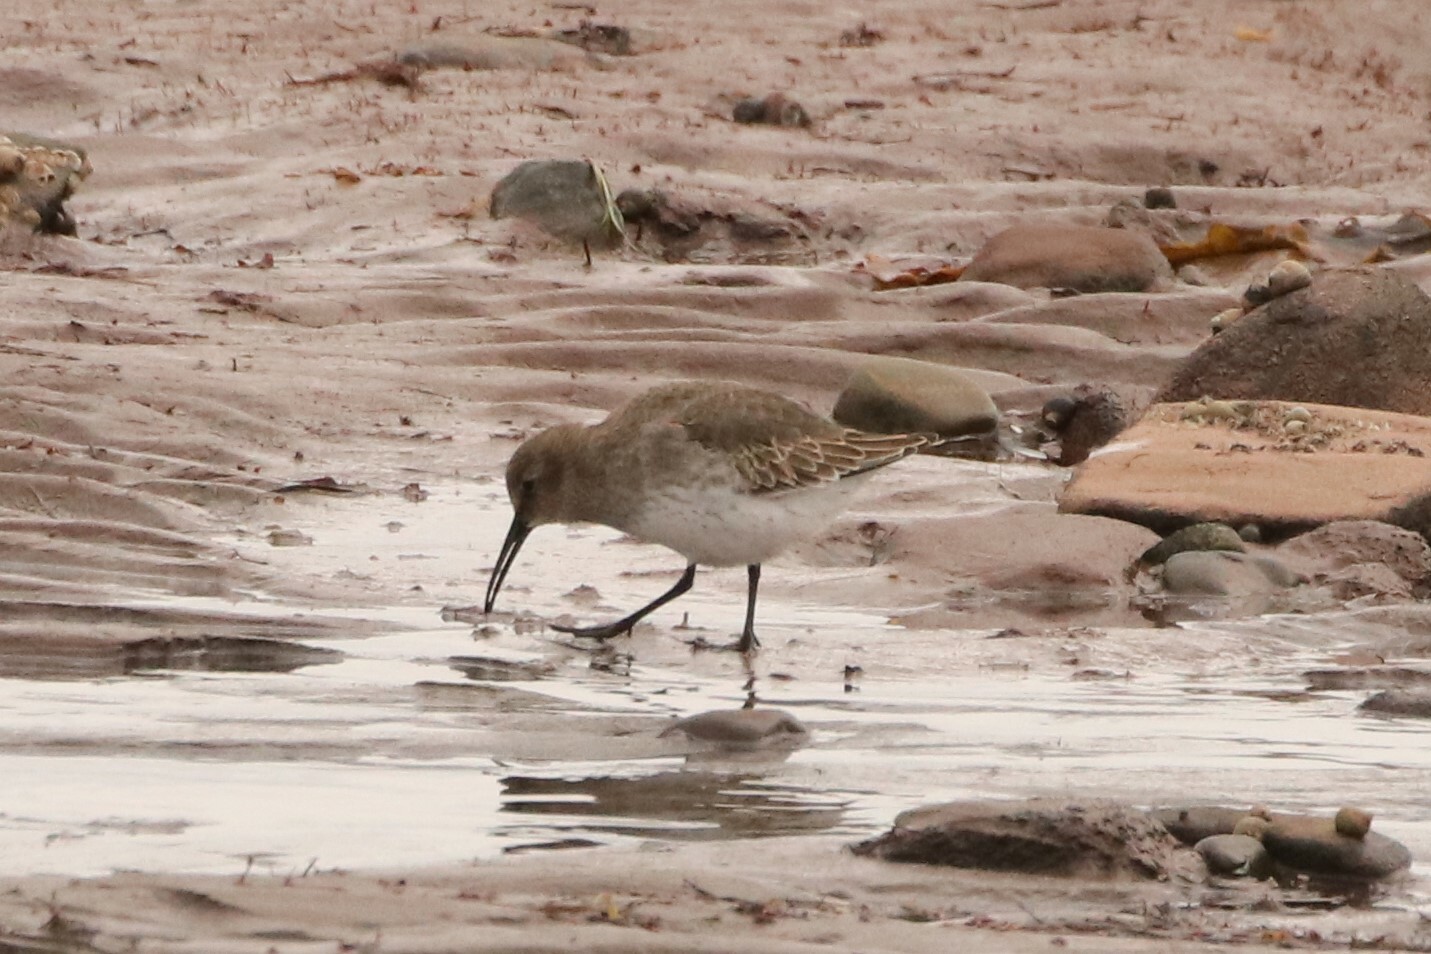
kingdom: Animalia
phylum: Chordata
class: Aves
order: Charadriiformes
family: Scolopacidae
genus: Calidris
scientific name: Calidris alpina
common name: Dunlin
